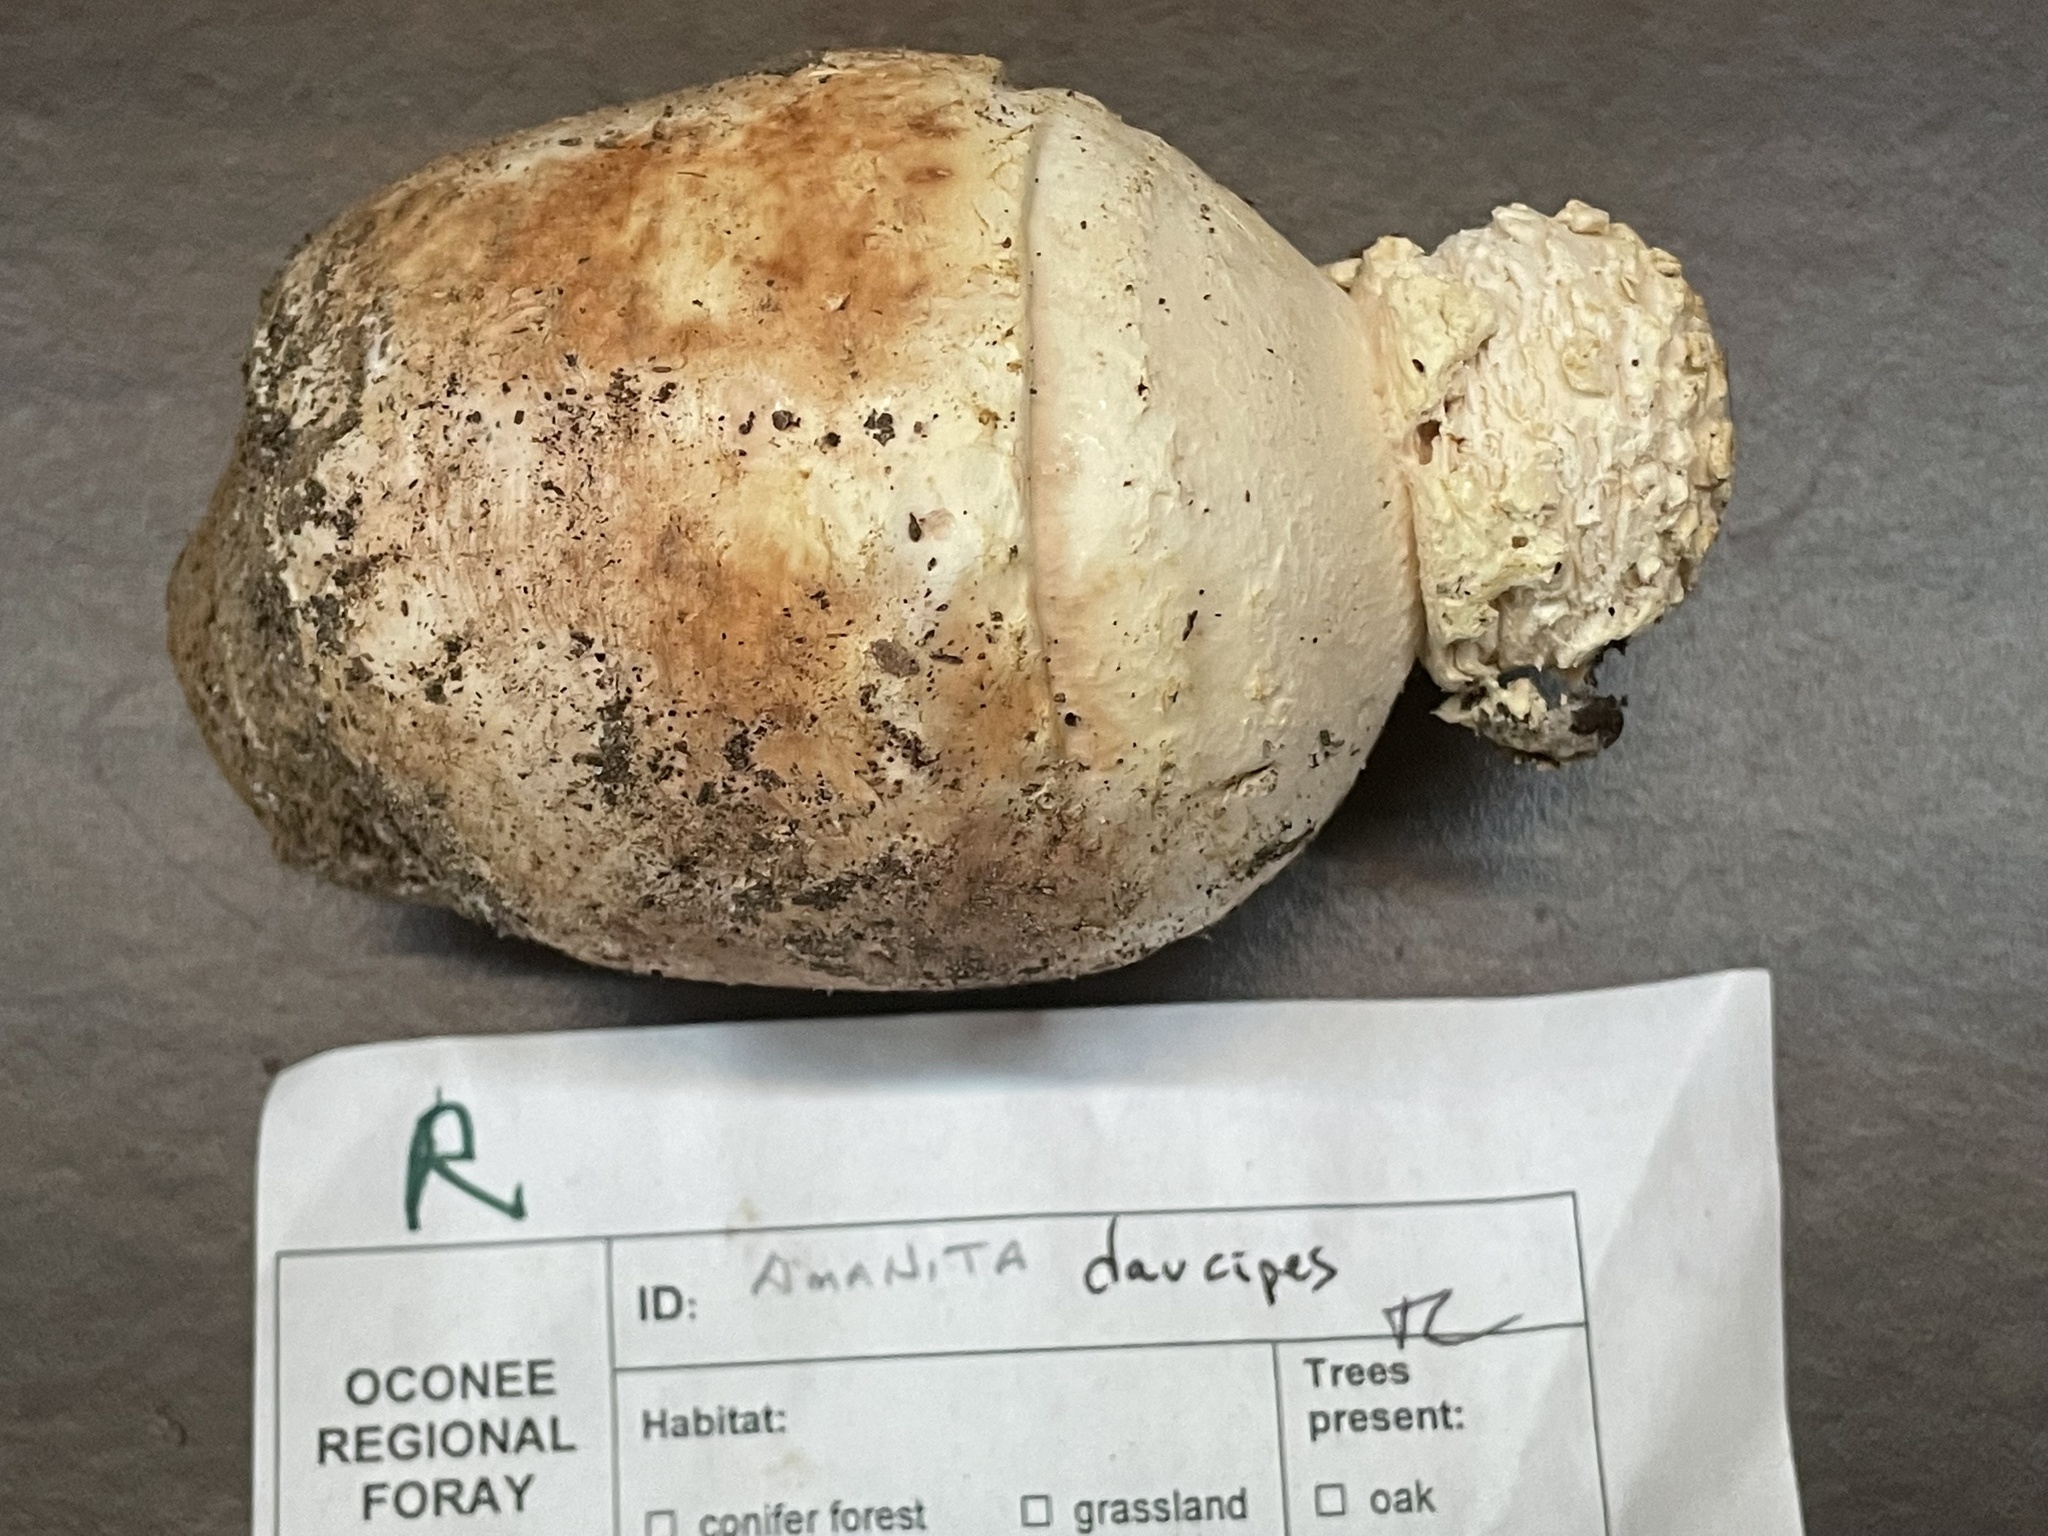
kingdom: Fungi
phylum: Basidiomycota
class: Agaricomycetes
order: Agaricales
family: Amanitaceae
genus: Amanita
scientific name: Amanita daucipes
